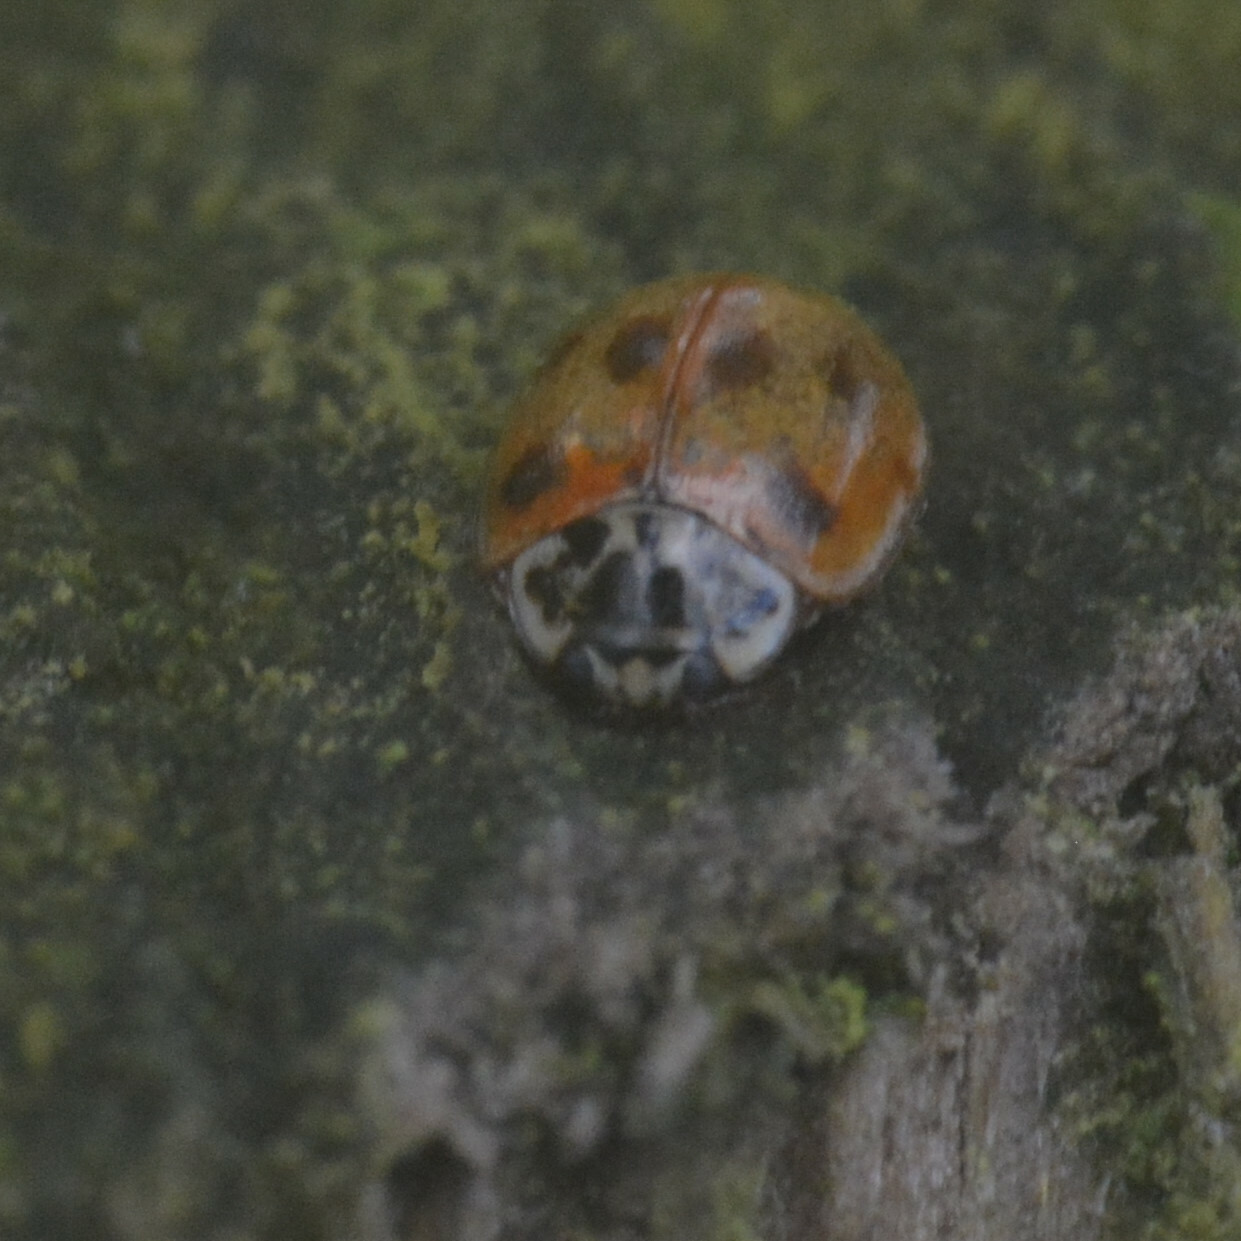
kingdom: Animalia
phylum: Arthropoda
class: Insecta
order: Coleoptera
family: Coccinellidae
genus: Adalia
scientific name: Adalia decempunctata
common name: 10-spot ladybird
